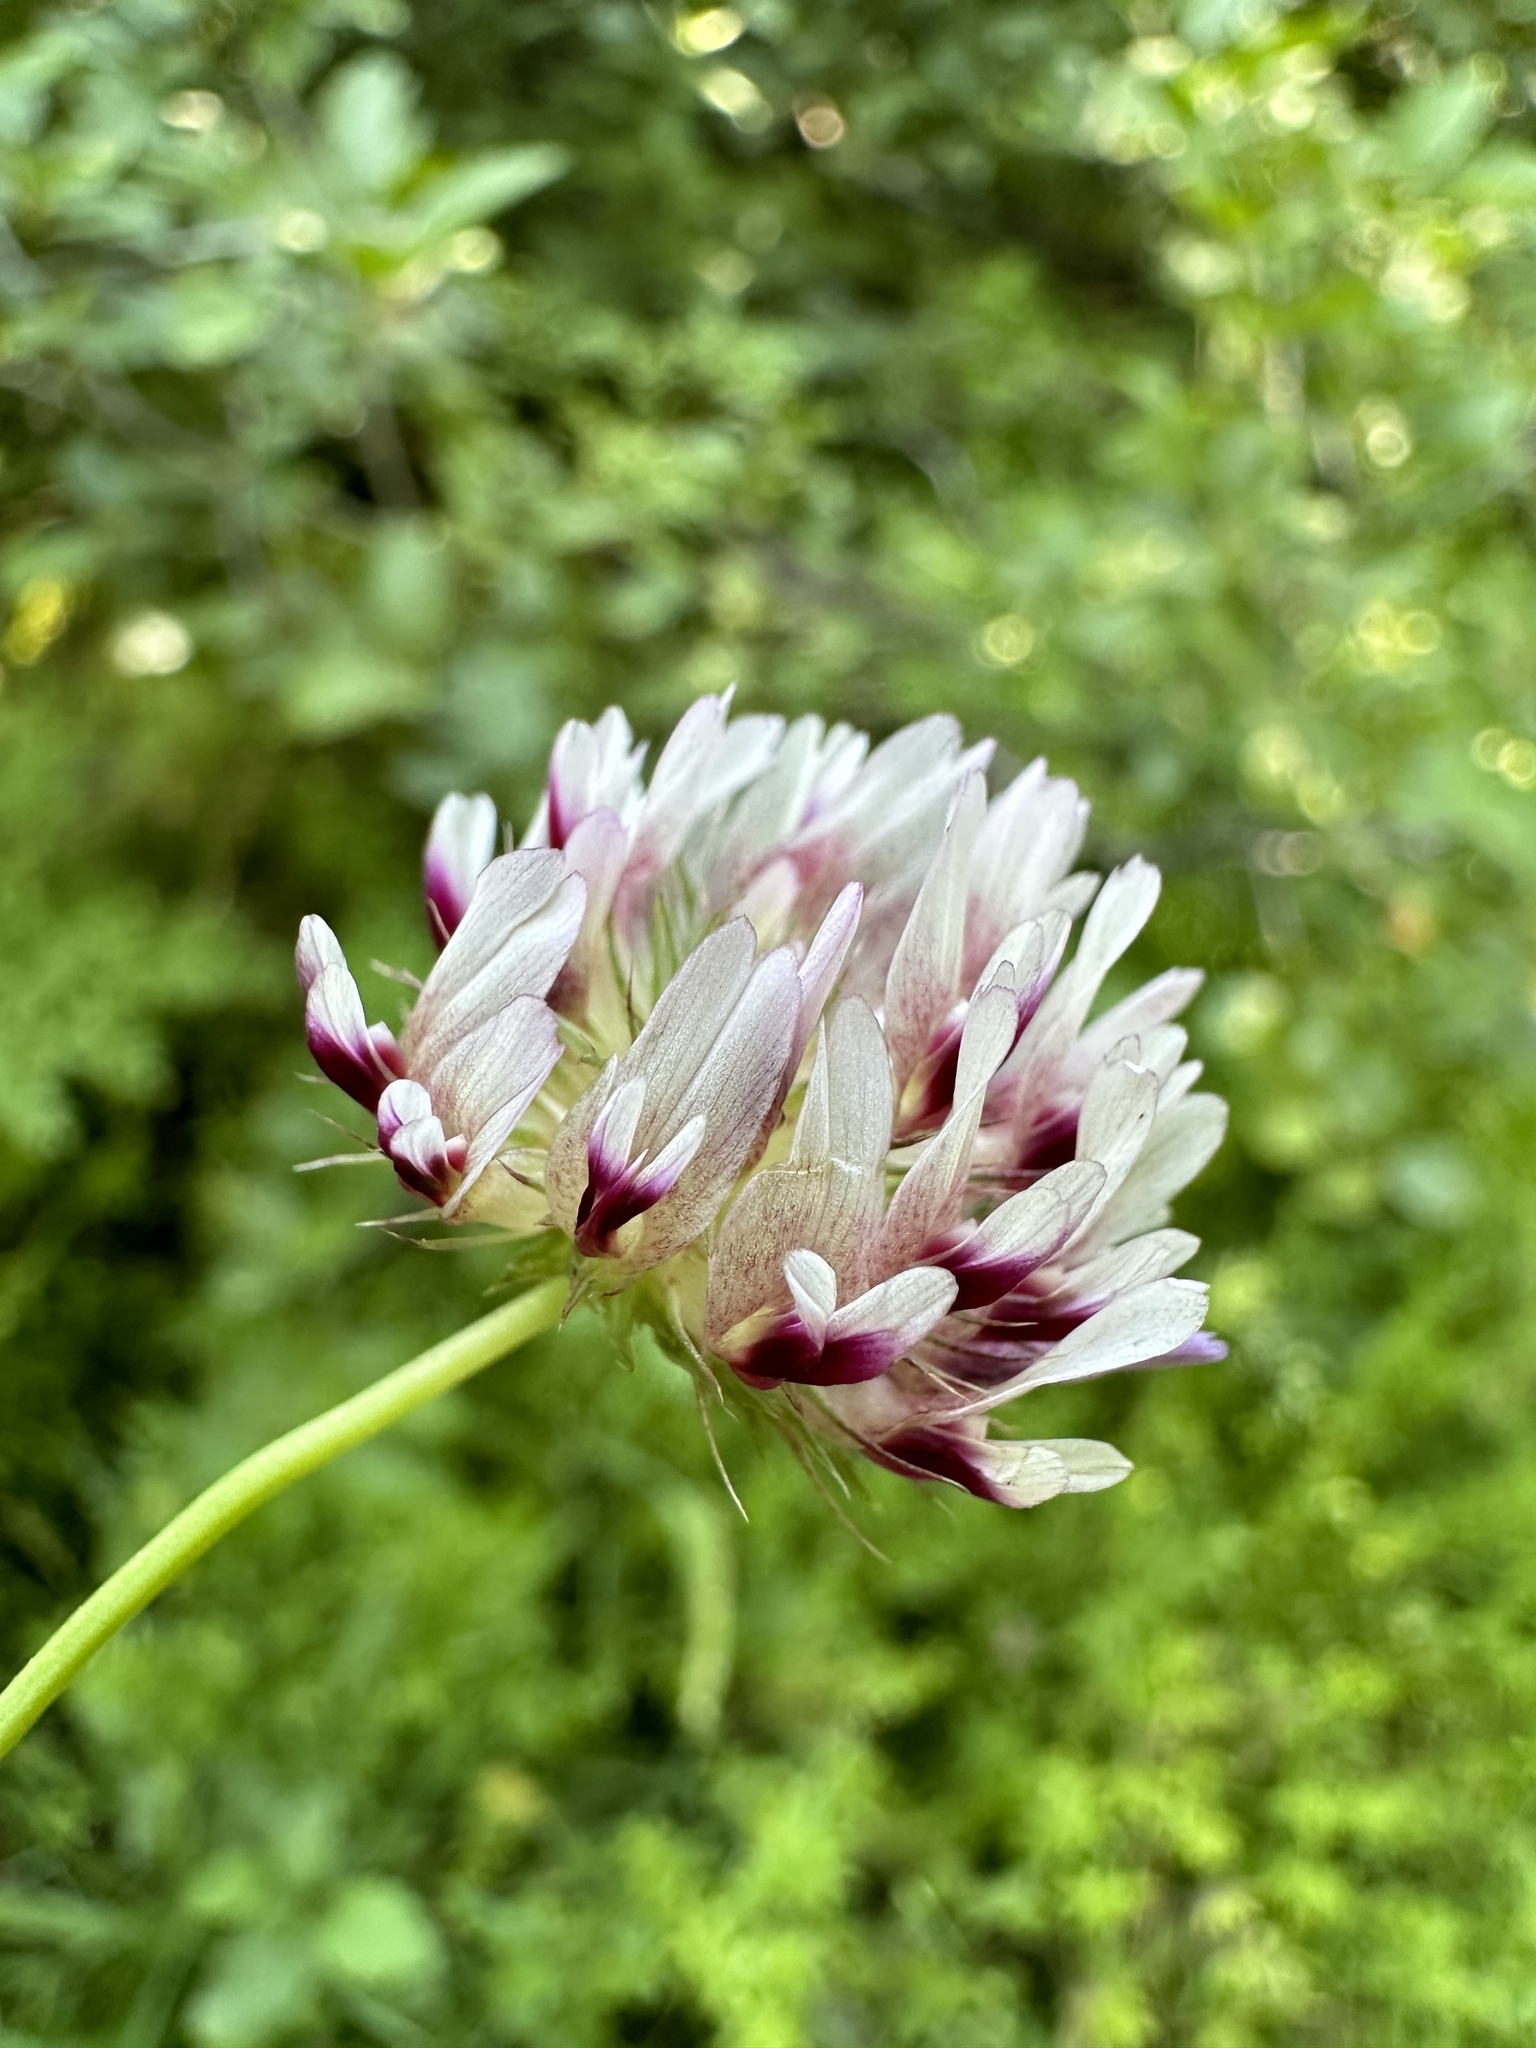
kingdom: Plantae
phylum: Tracheophyta
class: Magnoliopsida
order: Fabales
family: Fabaceae
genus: Trifolium
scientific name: Trifolium wormskioldii
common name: Springbank clover
